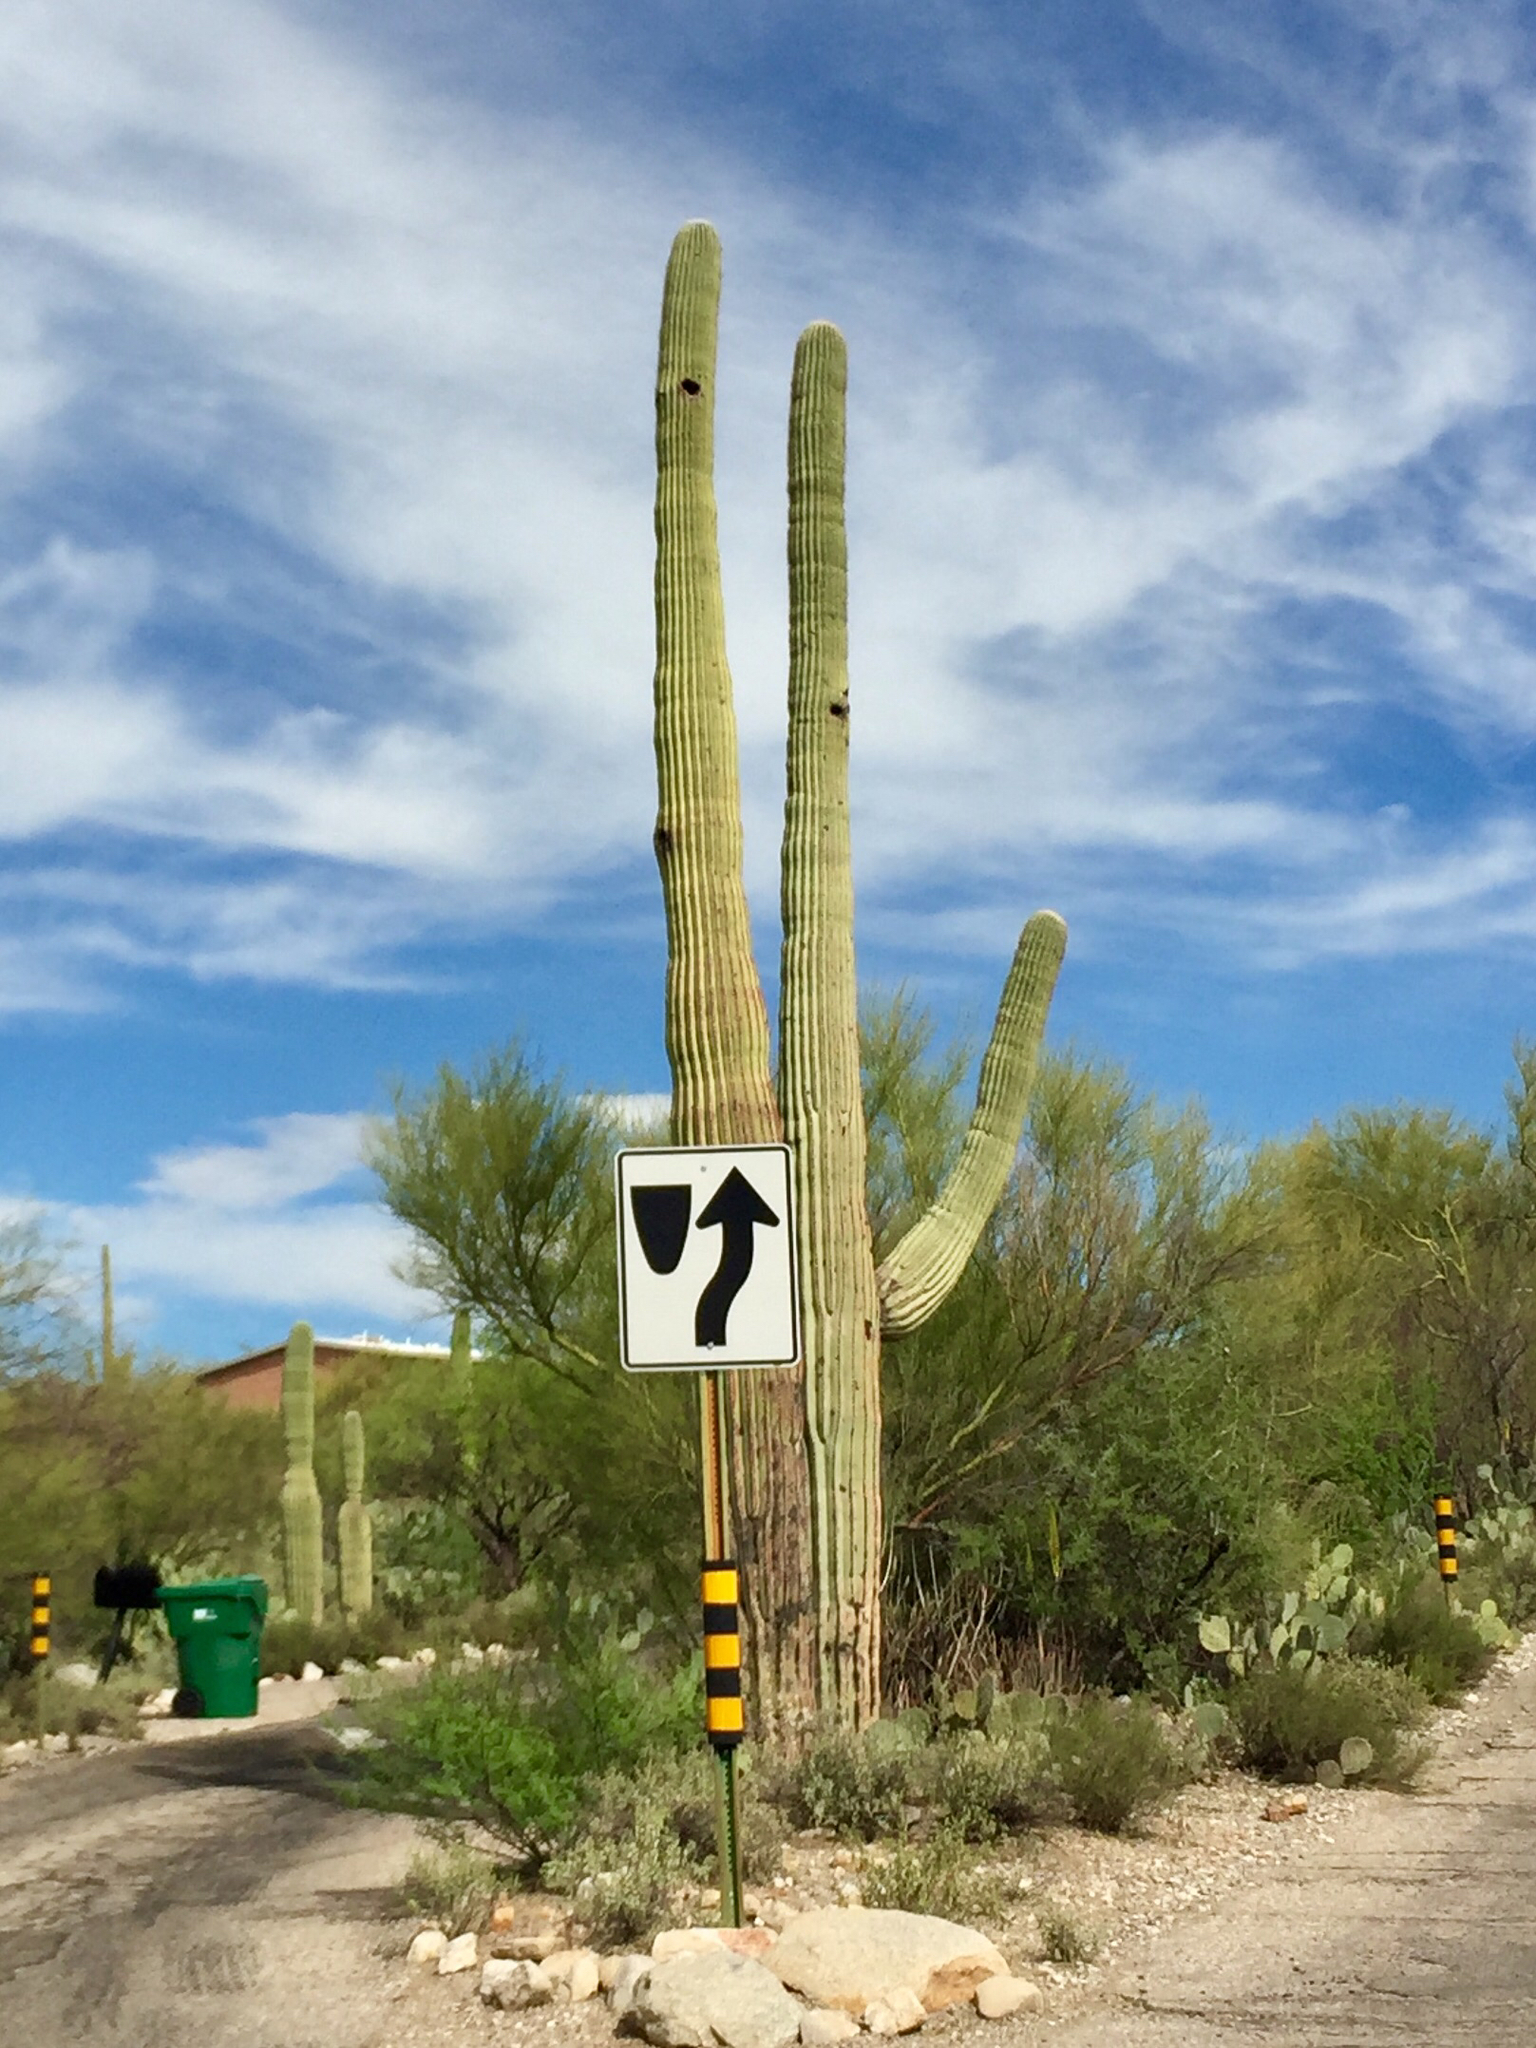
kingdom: Plantae
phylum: Tracheophyta
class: Magnoliopsida
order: Caryophyllales
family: Cactaceae
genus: Carnegiea
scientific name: Carnegiea gigantea
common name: Saguaro
